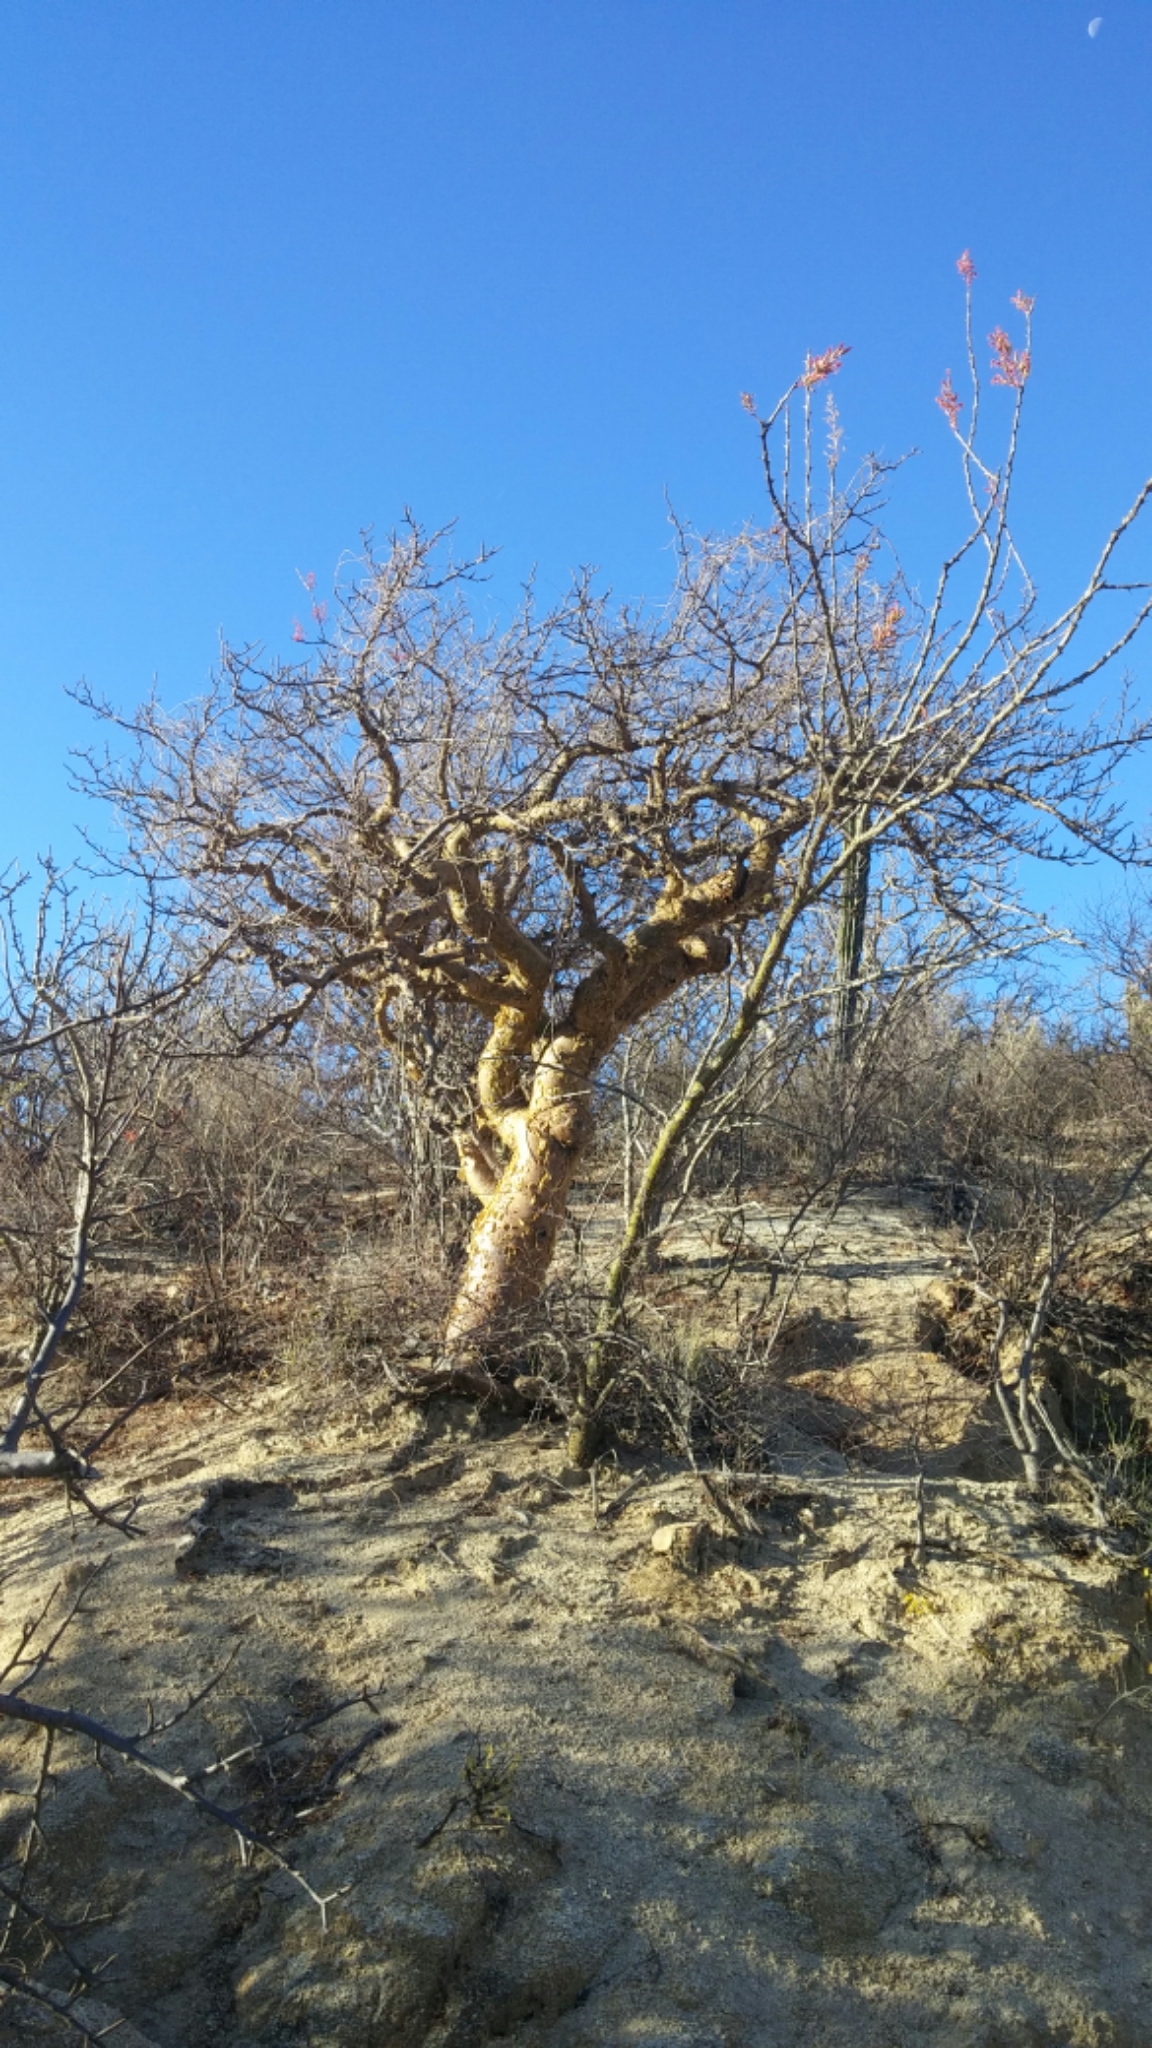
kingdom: Plantae
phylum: Tracheophyta
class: Magnoliopsida
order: Sapindales
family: Burseraceae
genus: Bursera
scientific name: Bursera microphylla
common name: Elephant tree
